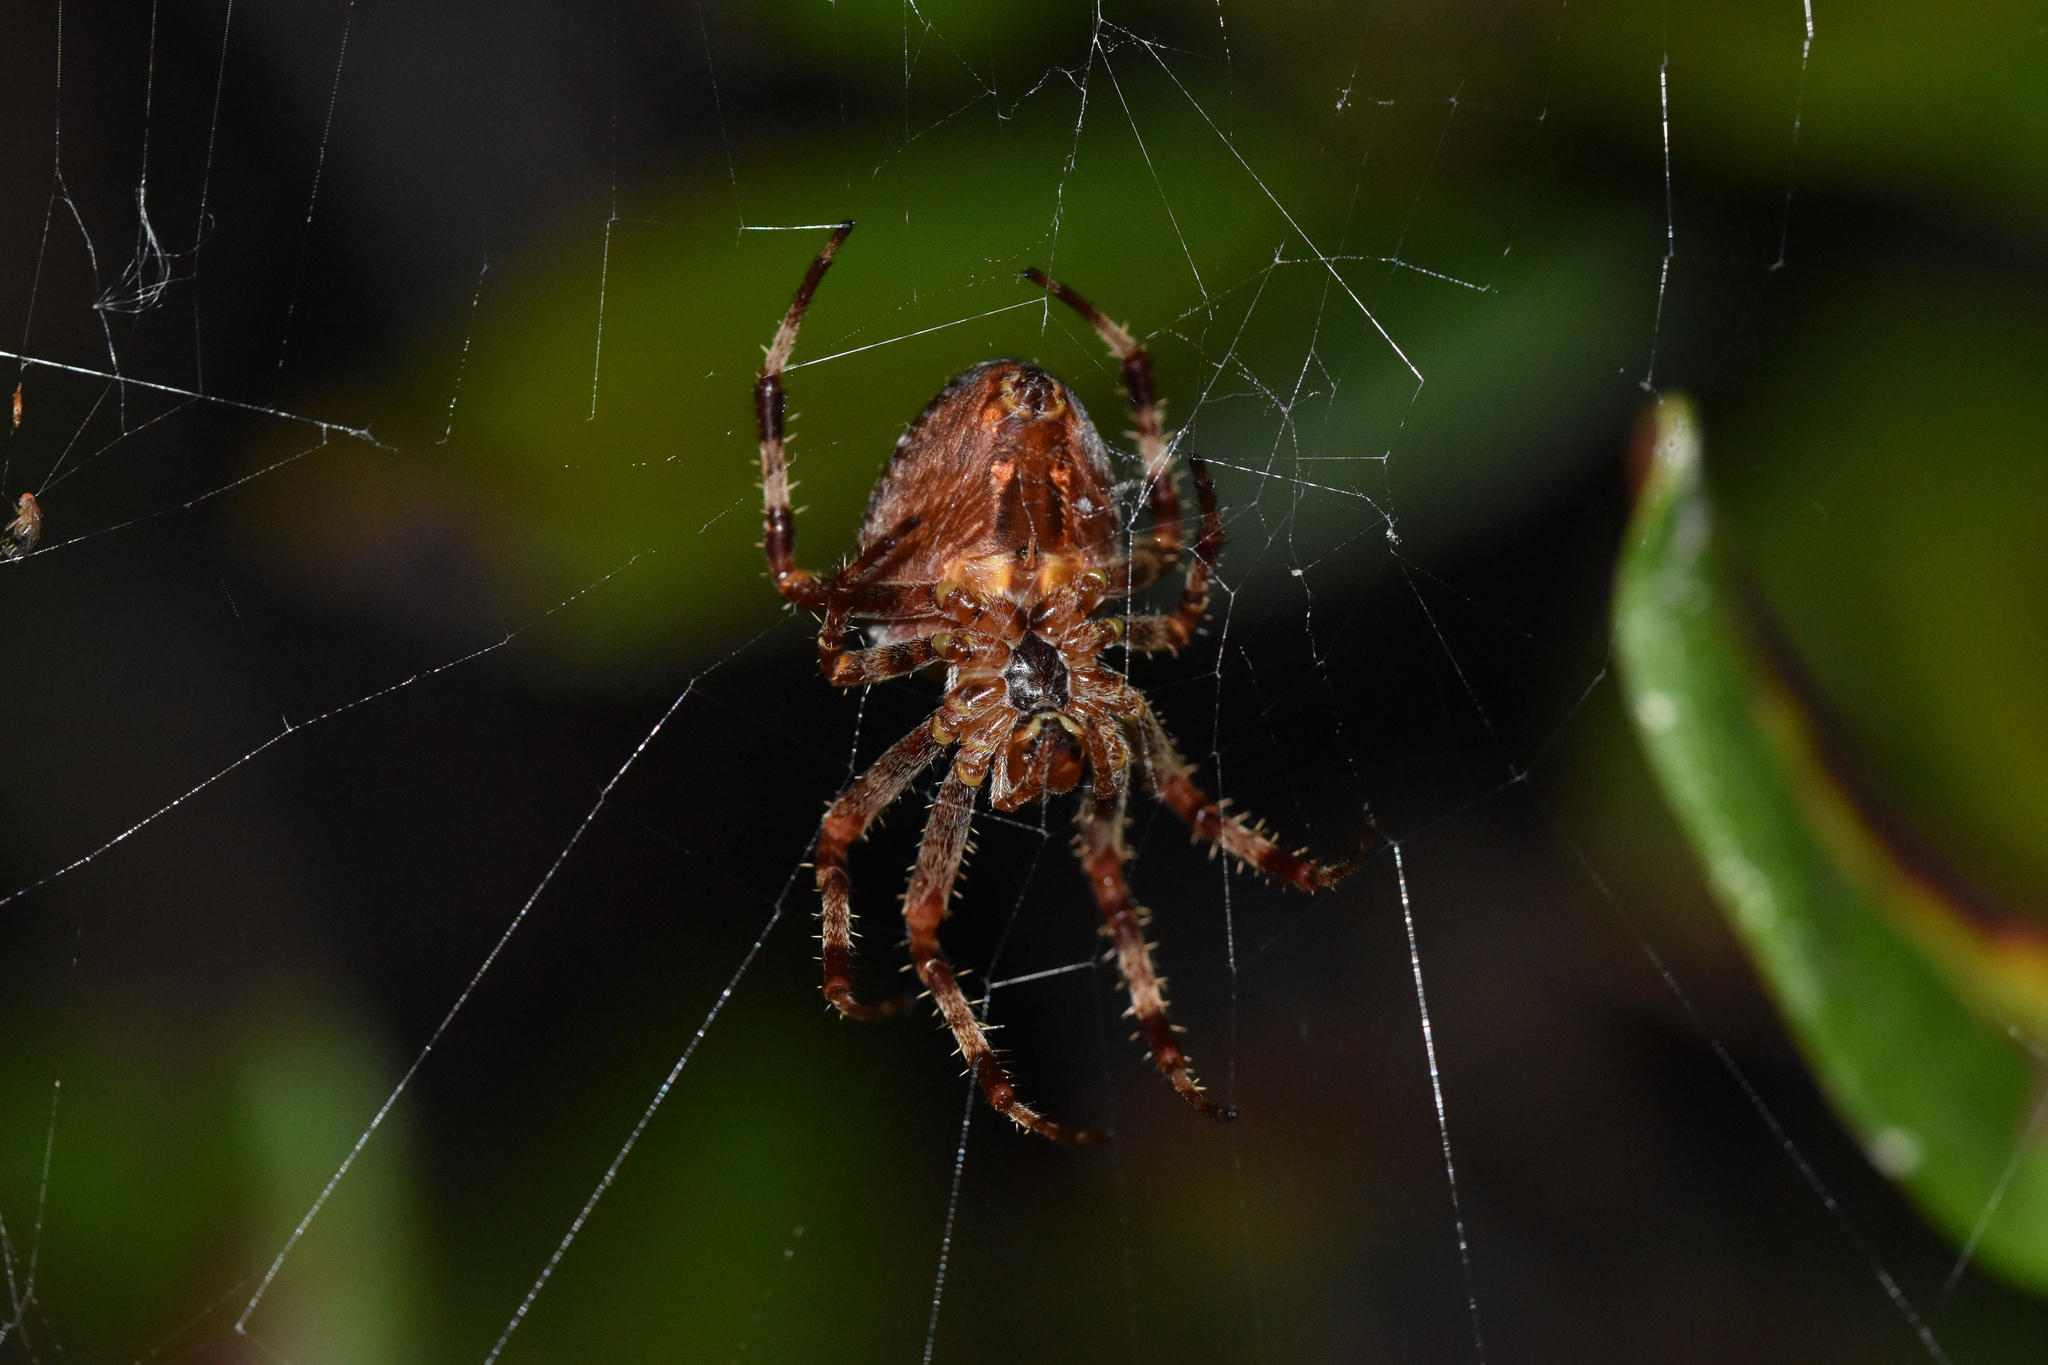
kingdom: Animalia
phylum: Arthropoda
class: Arachnida
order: Araneae
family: Araneidae
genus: Araneus
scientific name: Araneus diadematus
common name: Cross orbweaver
